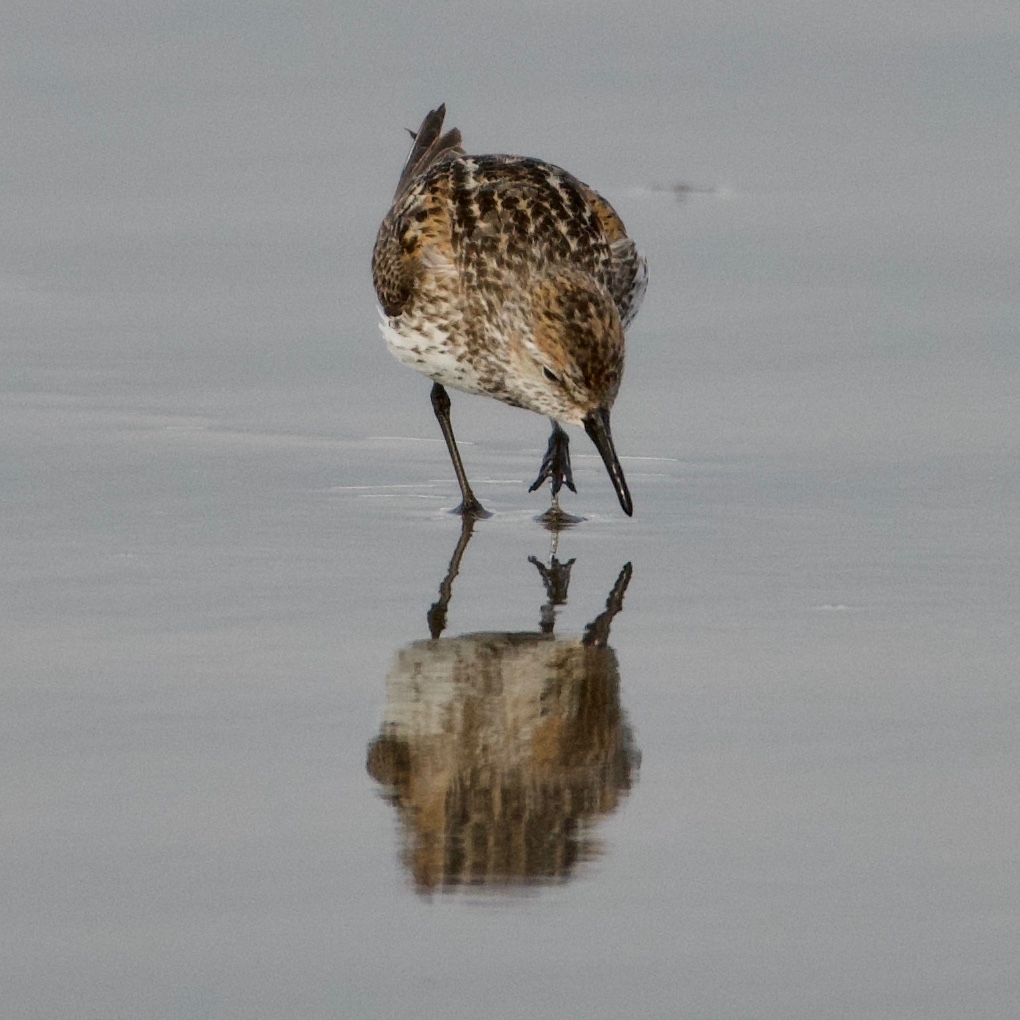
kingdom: Animalia
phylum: Chordata
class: Aves
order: Charadriiformes
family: Scolopacidae
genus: Calidris
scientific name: Calidris mauri
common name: Western sandpiper
